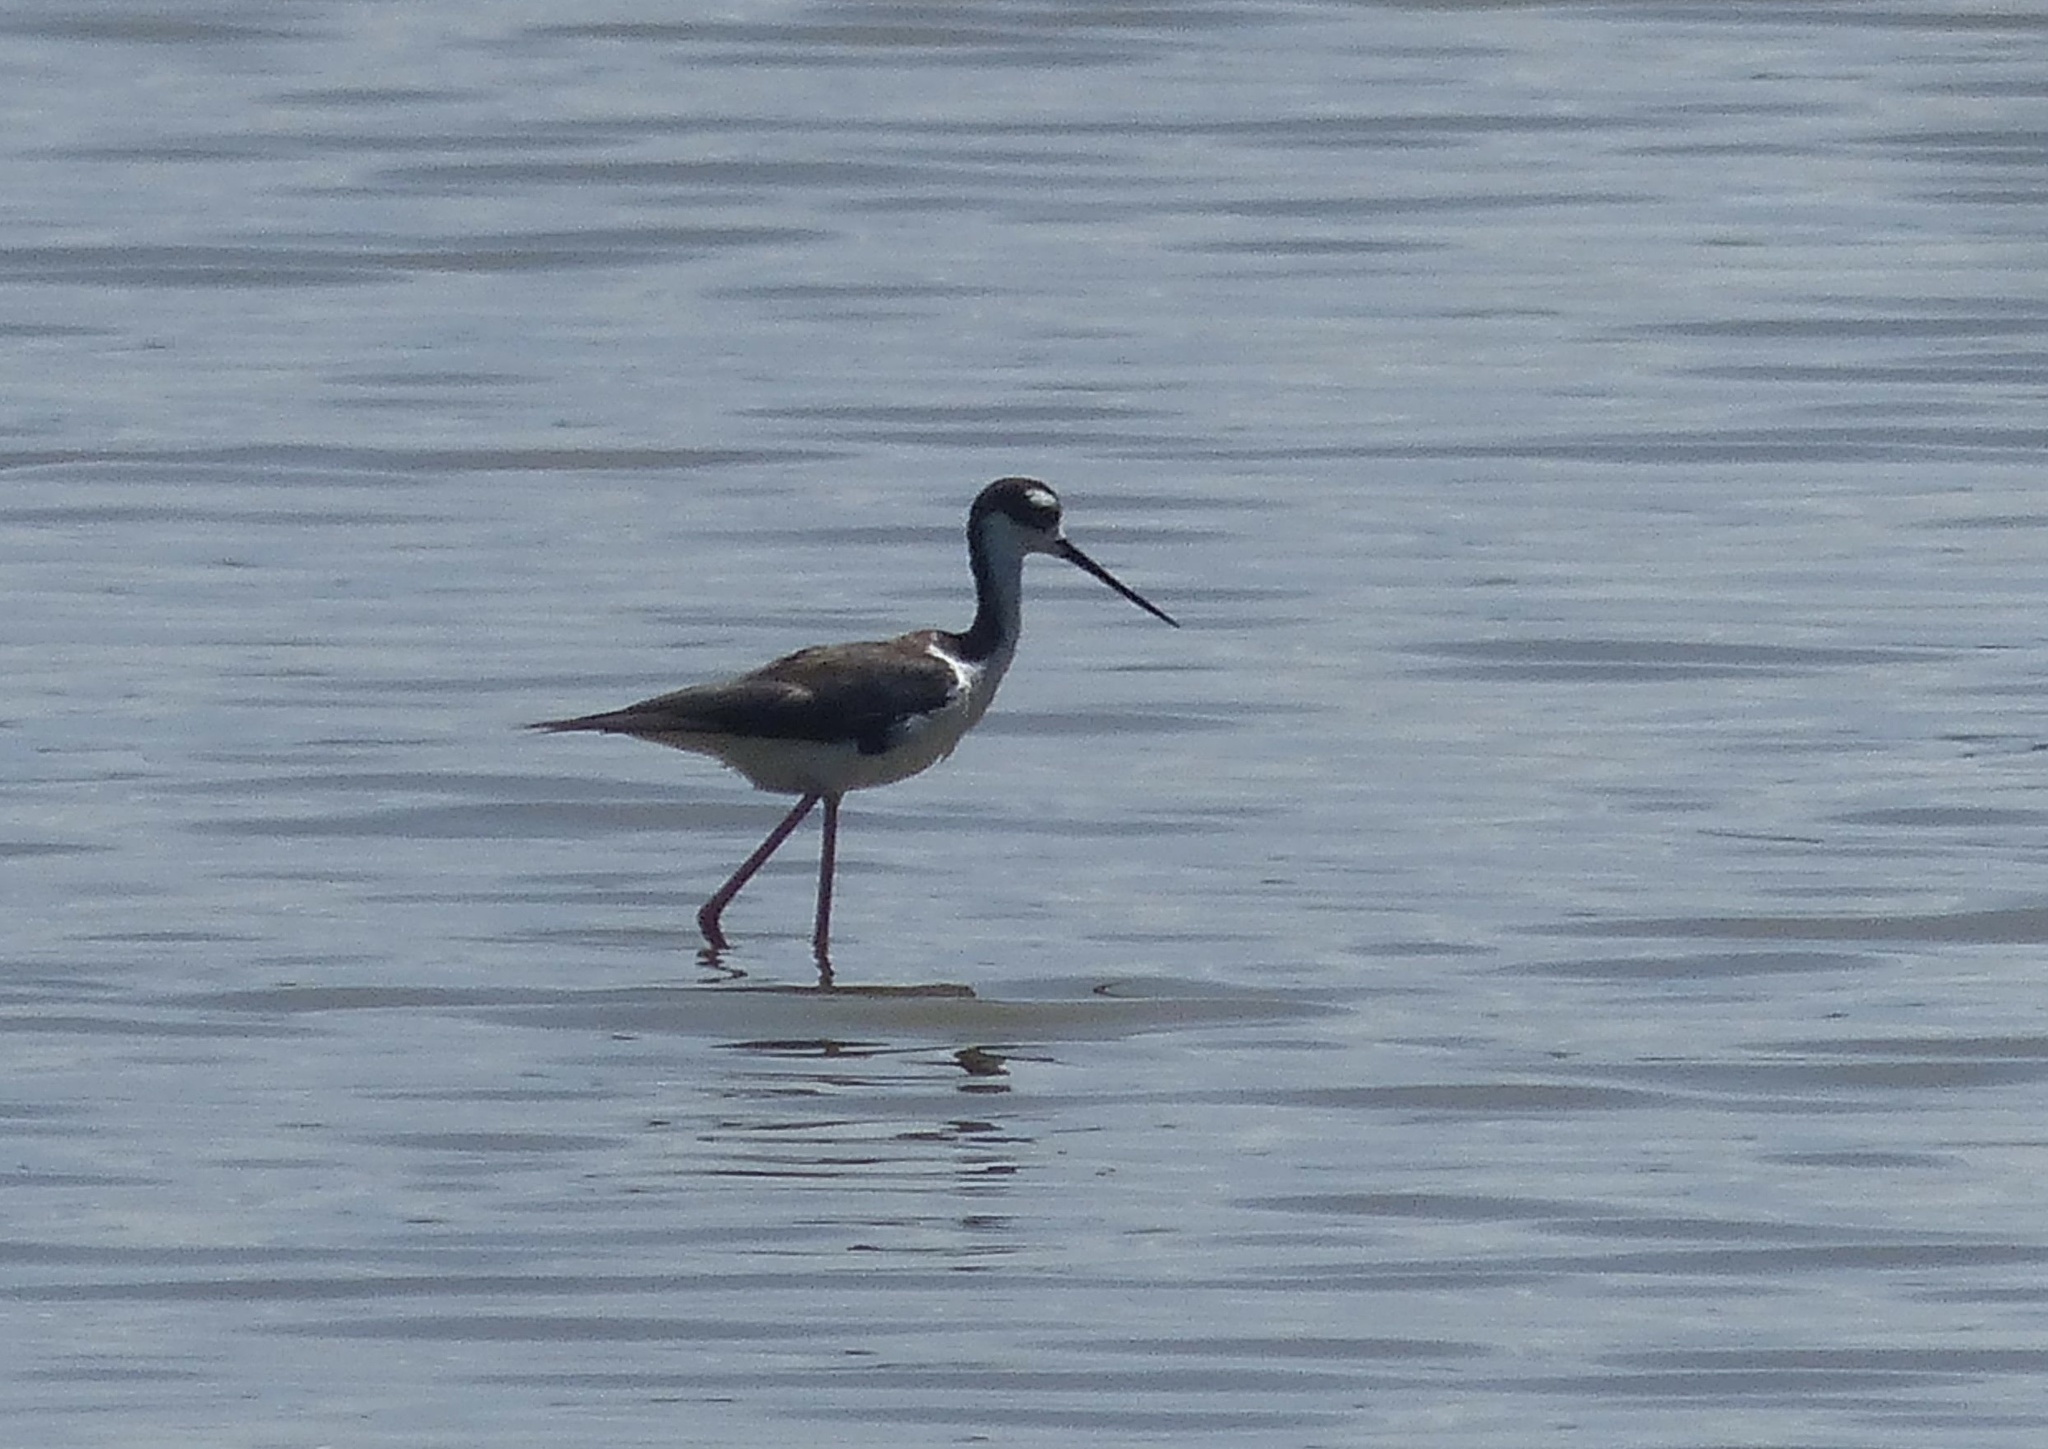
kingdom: Animalia
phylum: Chordata
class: Aves
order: Charadriiformes
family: Recurvirostridae
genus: Himantopus
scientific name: Himantopus mexicanus
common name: Black-necked stilt
